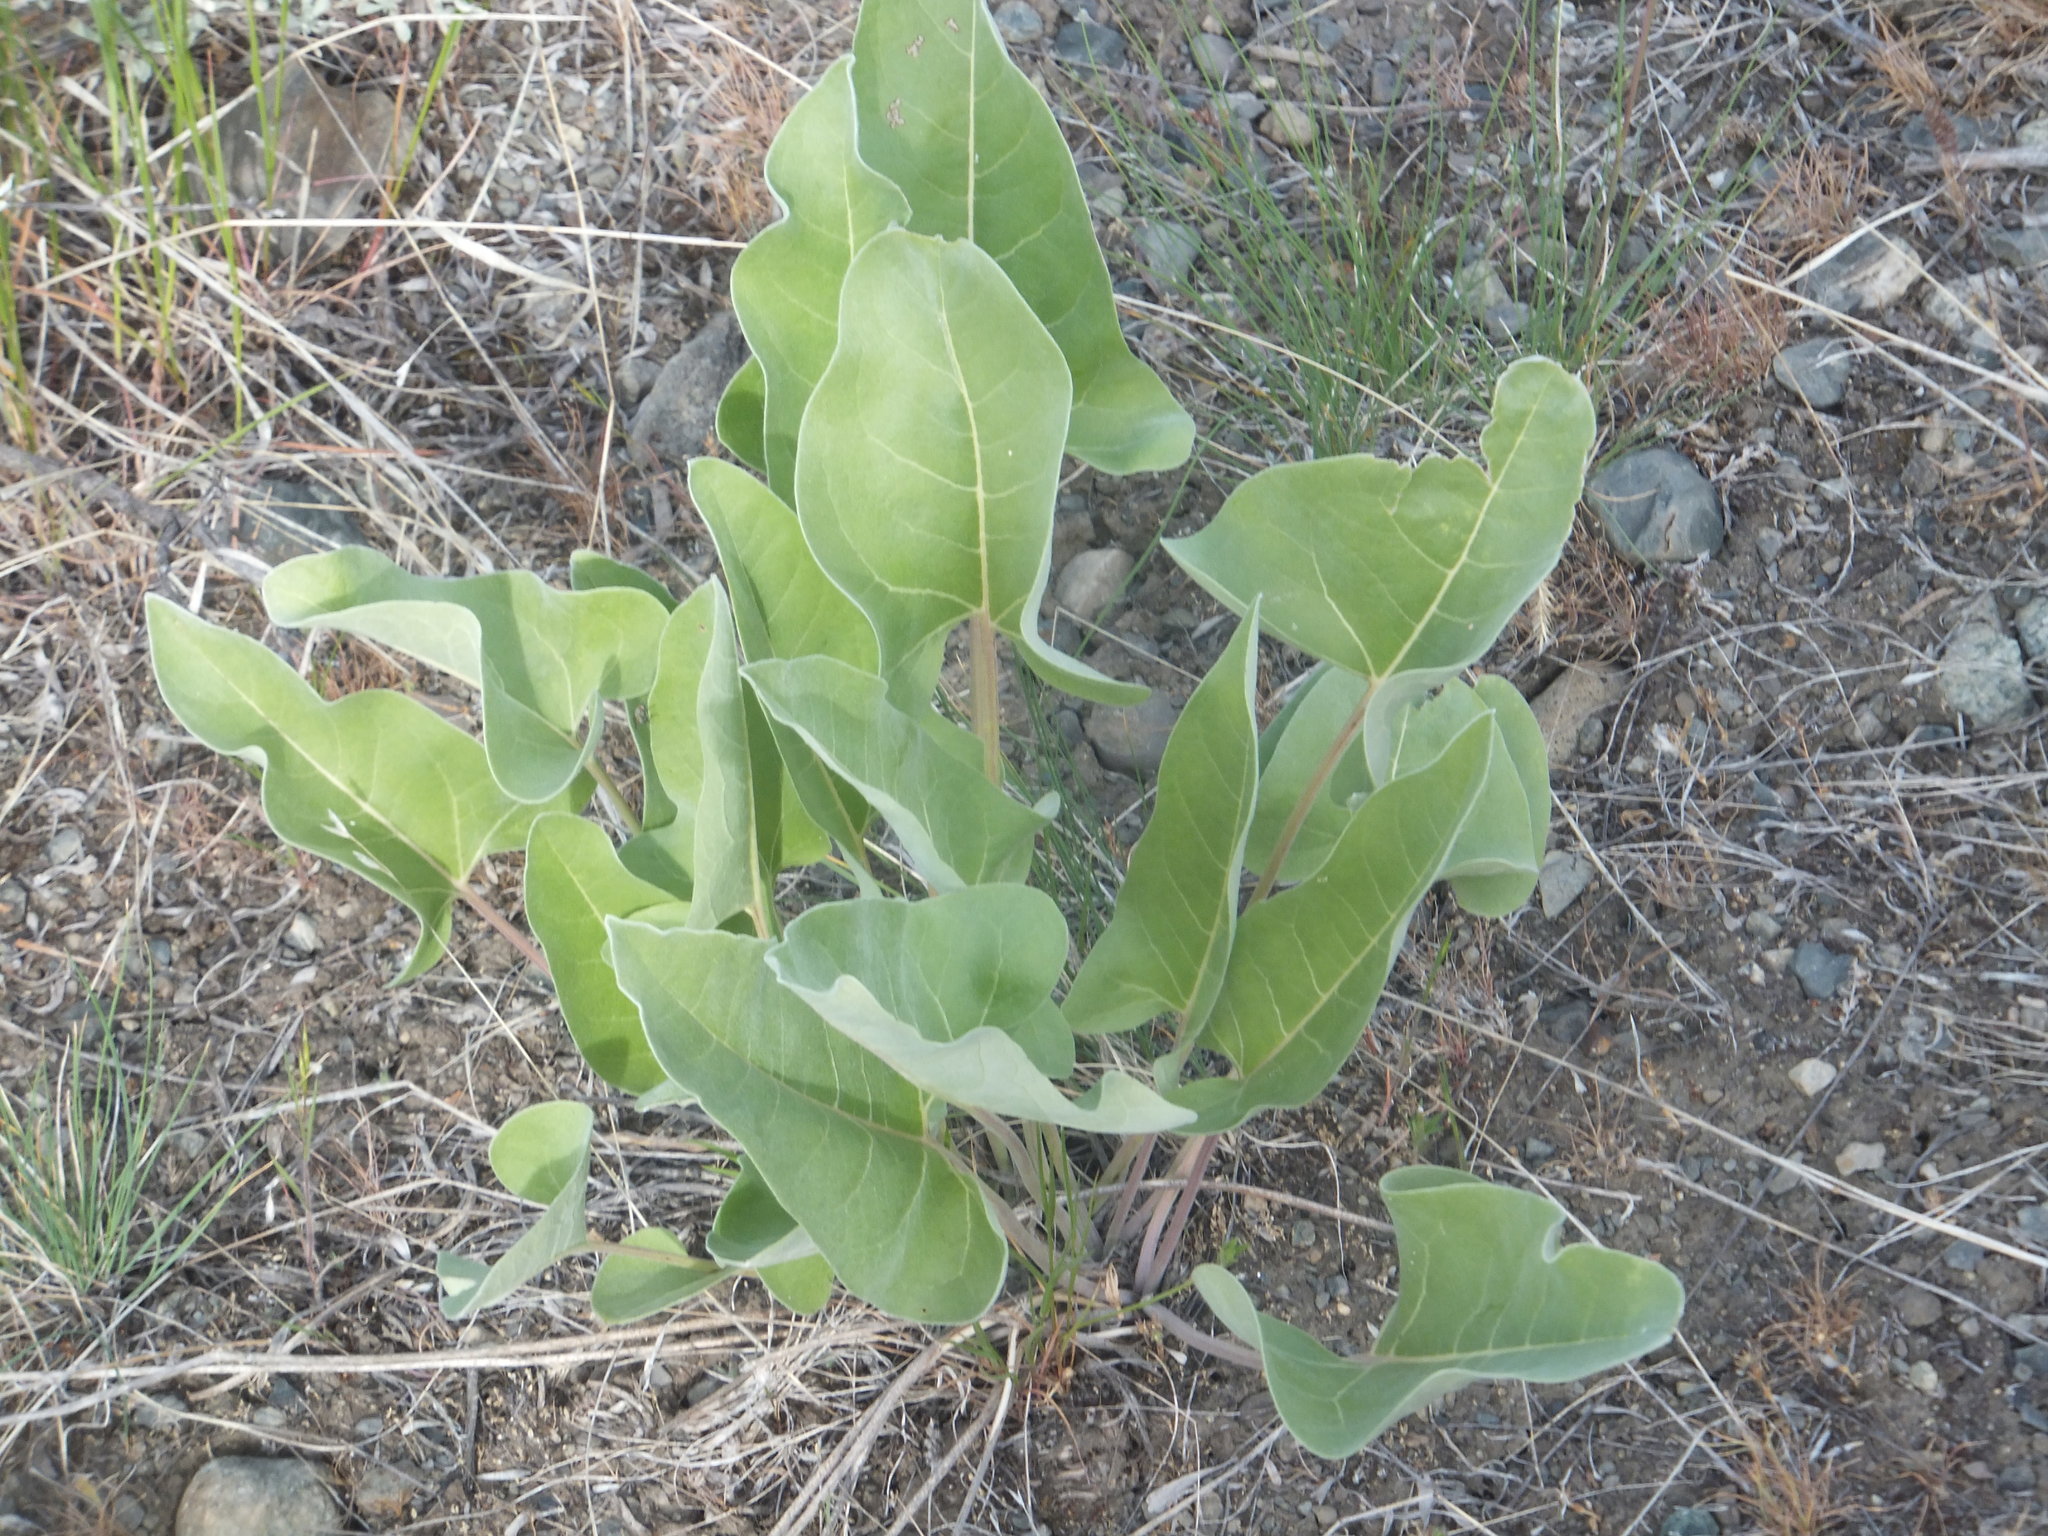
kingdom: Plantae
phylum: Tracheophyta
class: Magnoliopsida
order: Asterales
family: Asteraceae
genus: Wyethia
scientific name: Wyethia sagittata
